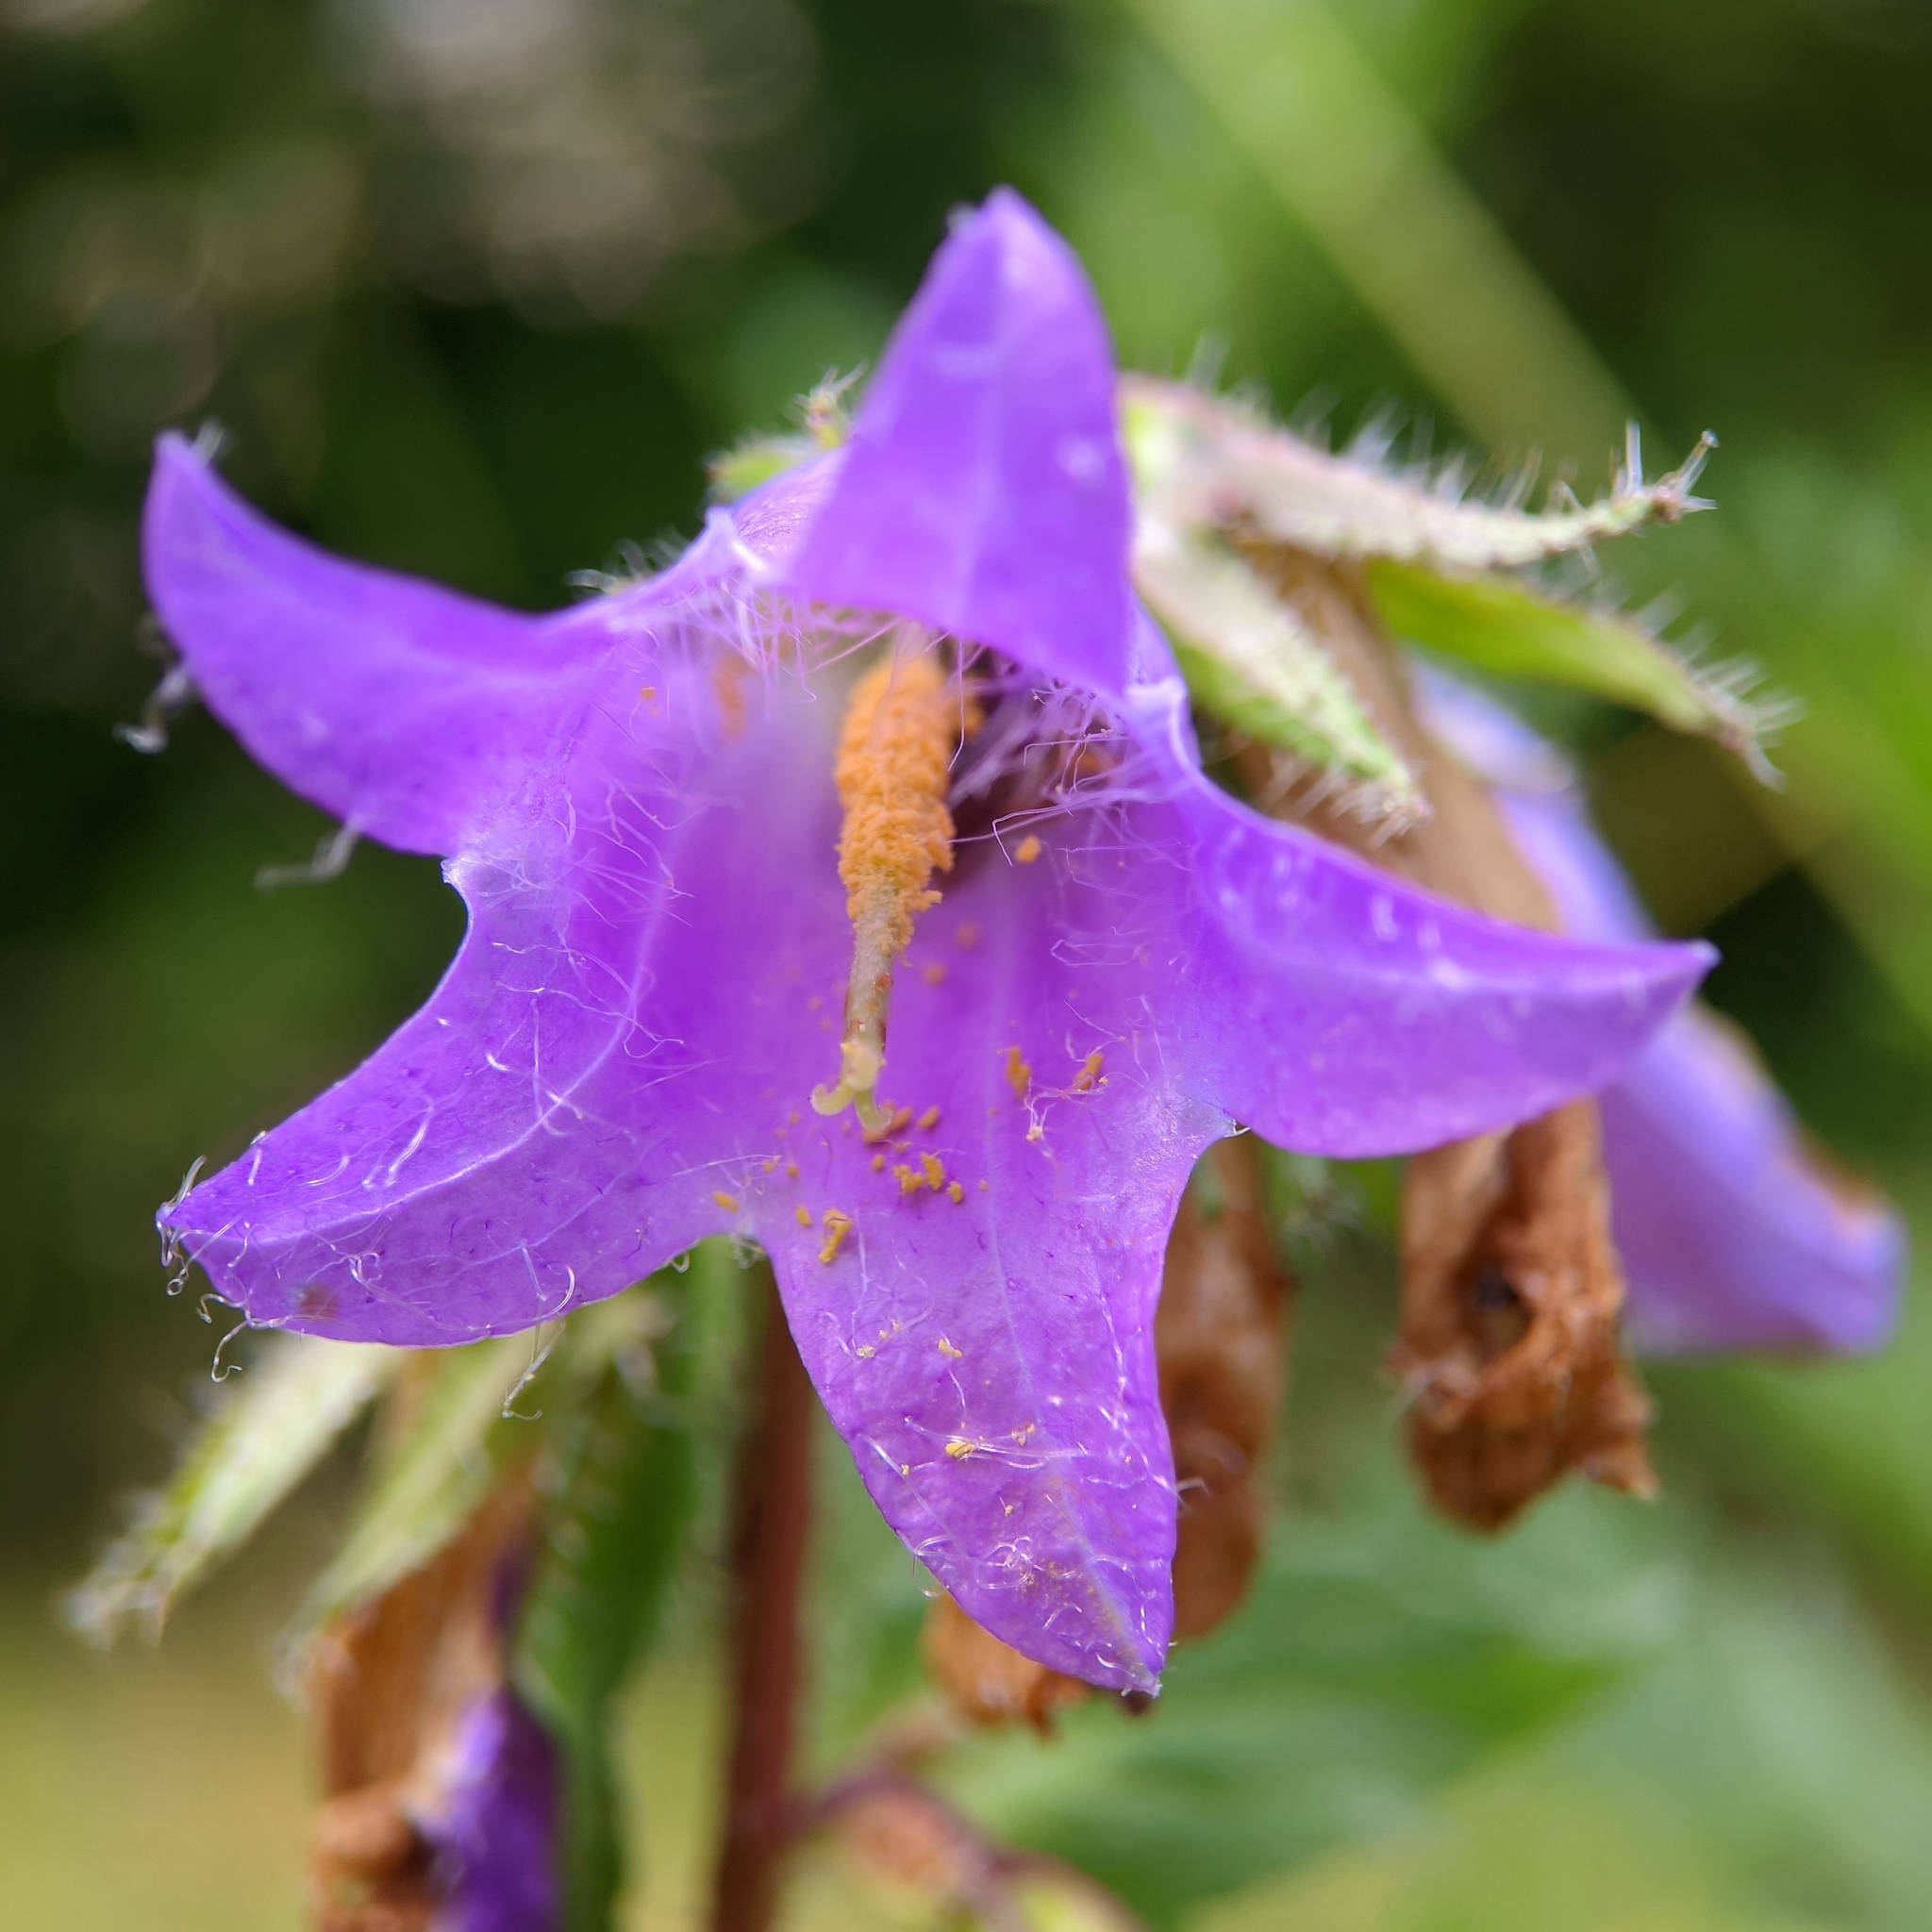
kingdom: Plantae
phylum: Tracheophyta
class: Magnoliopsida
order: Asterales
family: Campanulaceae
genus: Campanula
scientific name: Campanula trachelium
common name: Nettle-leaved bellflower
